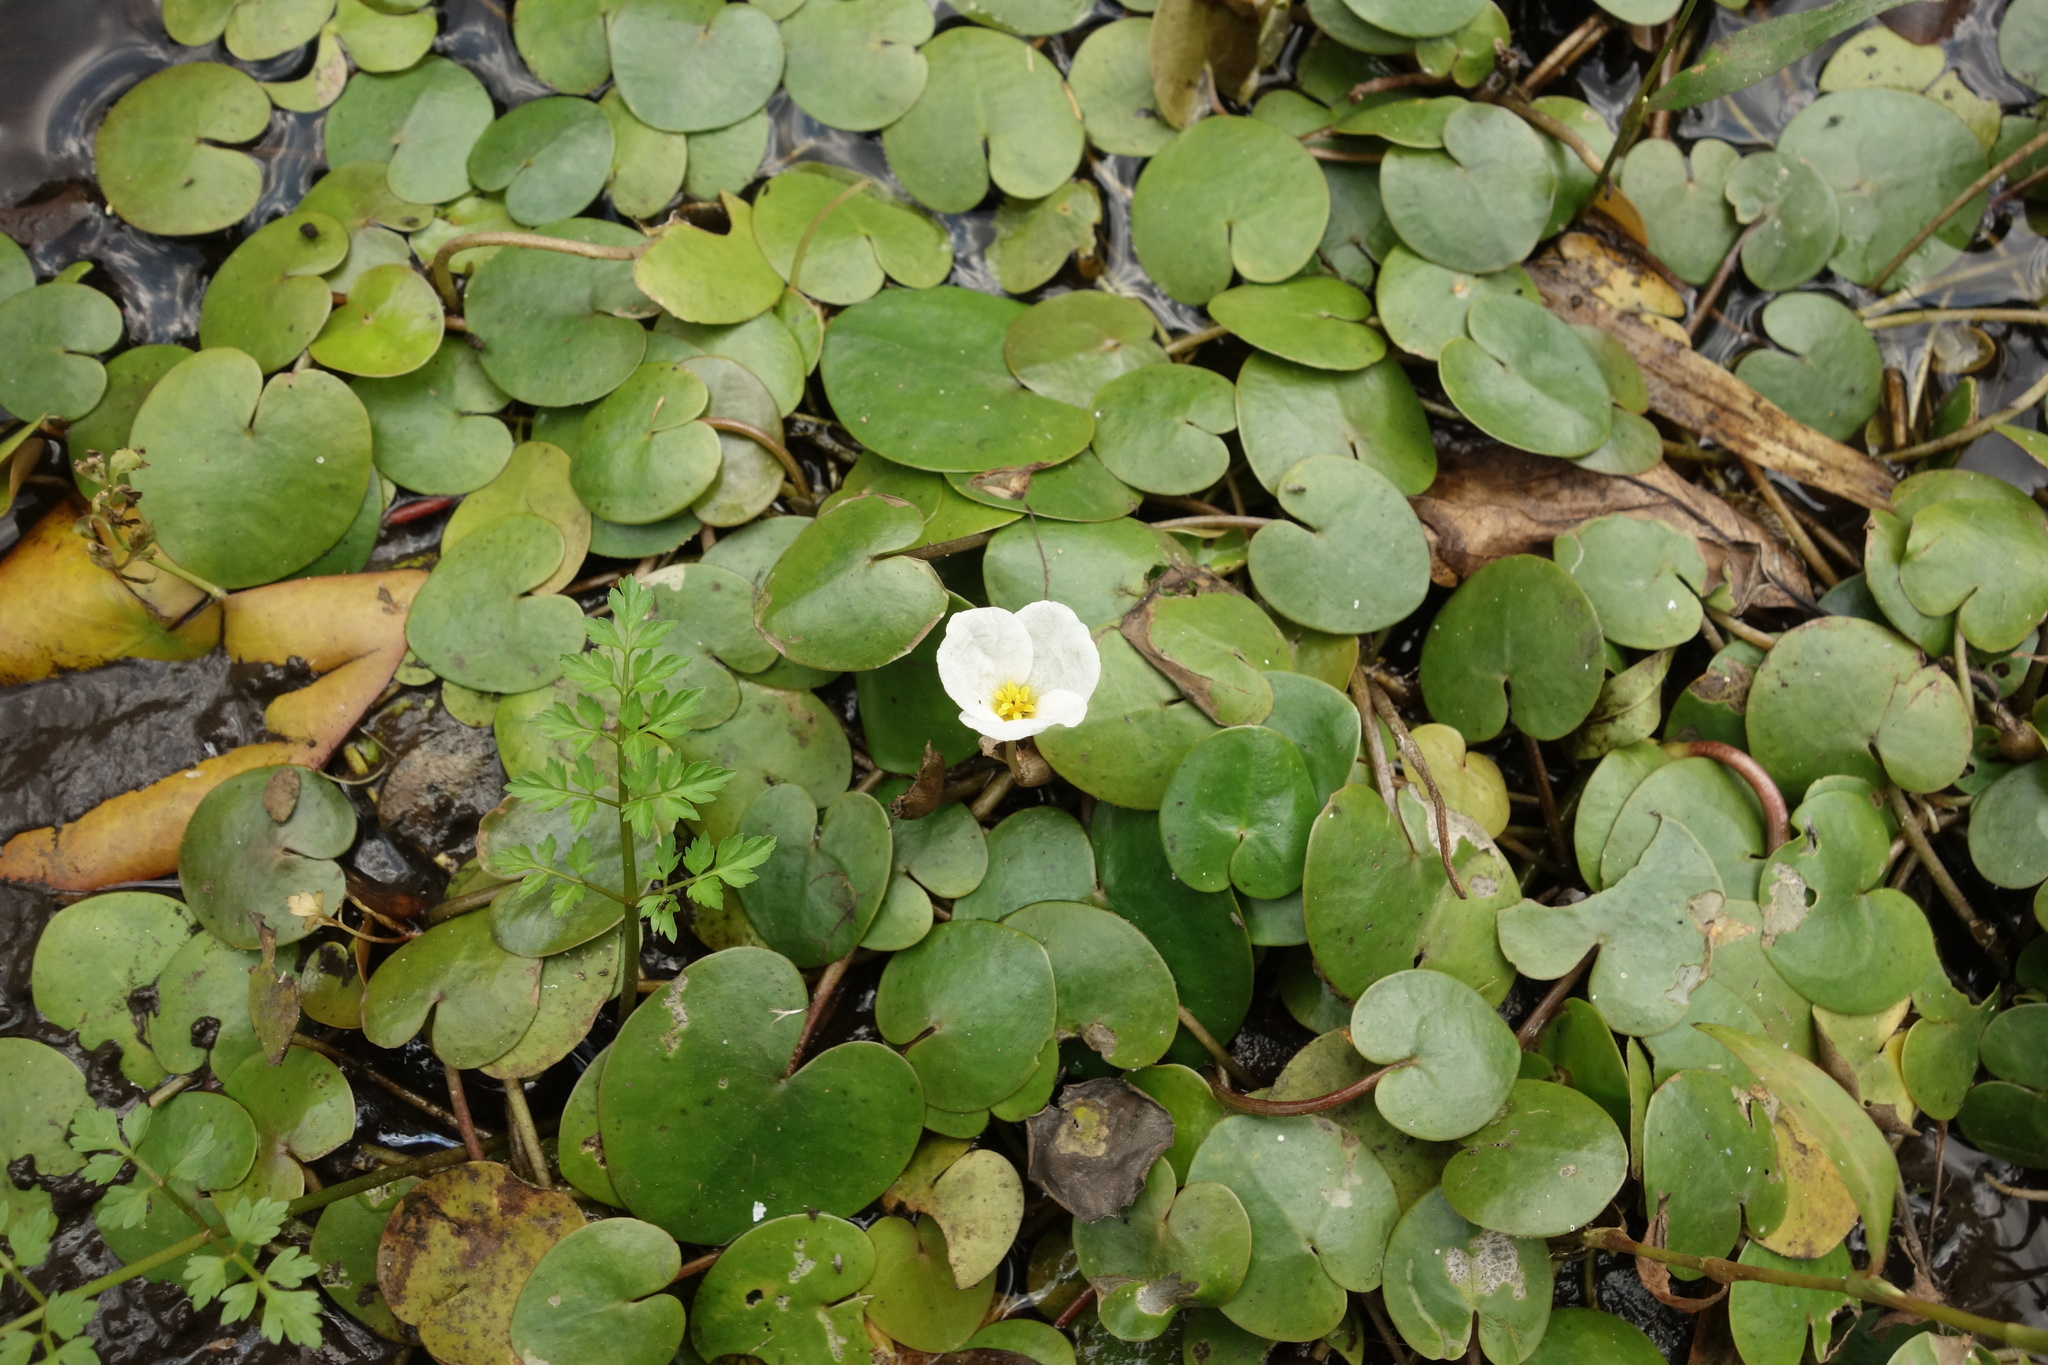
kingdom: Plantae
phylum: Tracheophyta
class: Liliopsida
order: Alismatales
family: Hydrocharitaceae
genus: Hydrocharis
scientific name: Hydrocharis morsus-ranae
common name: Frogbit
